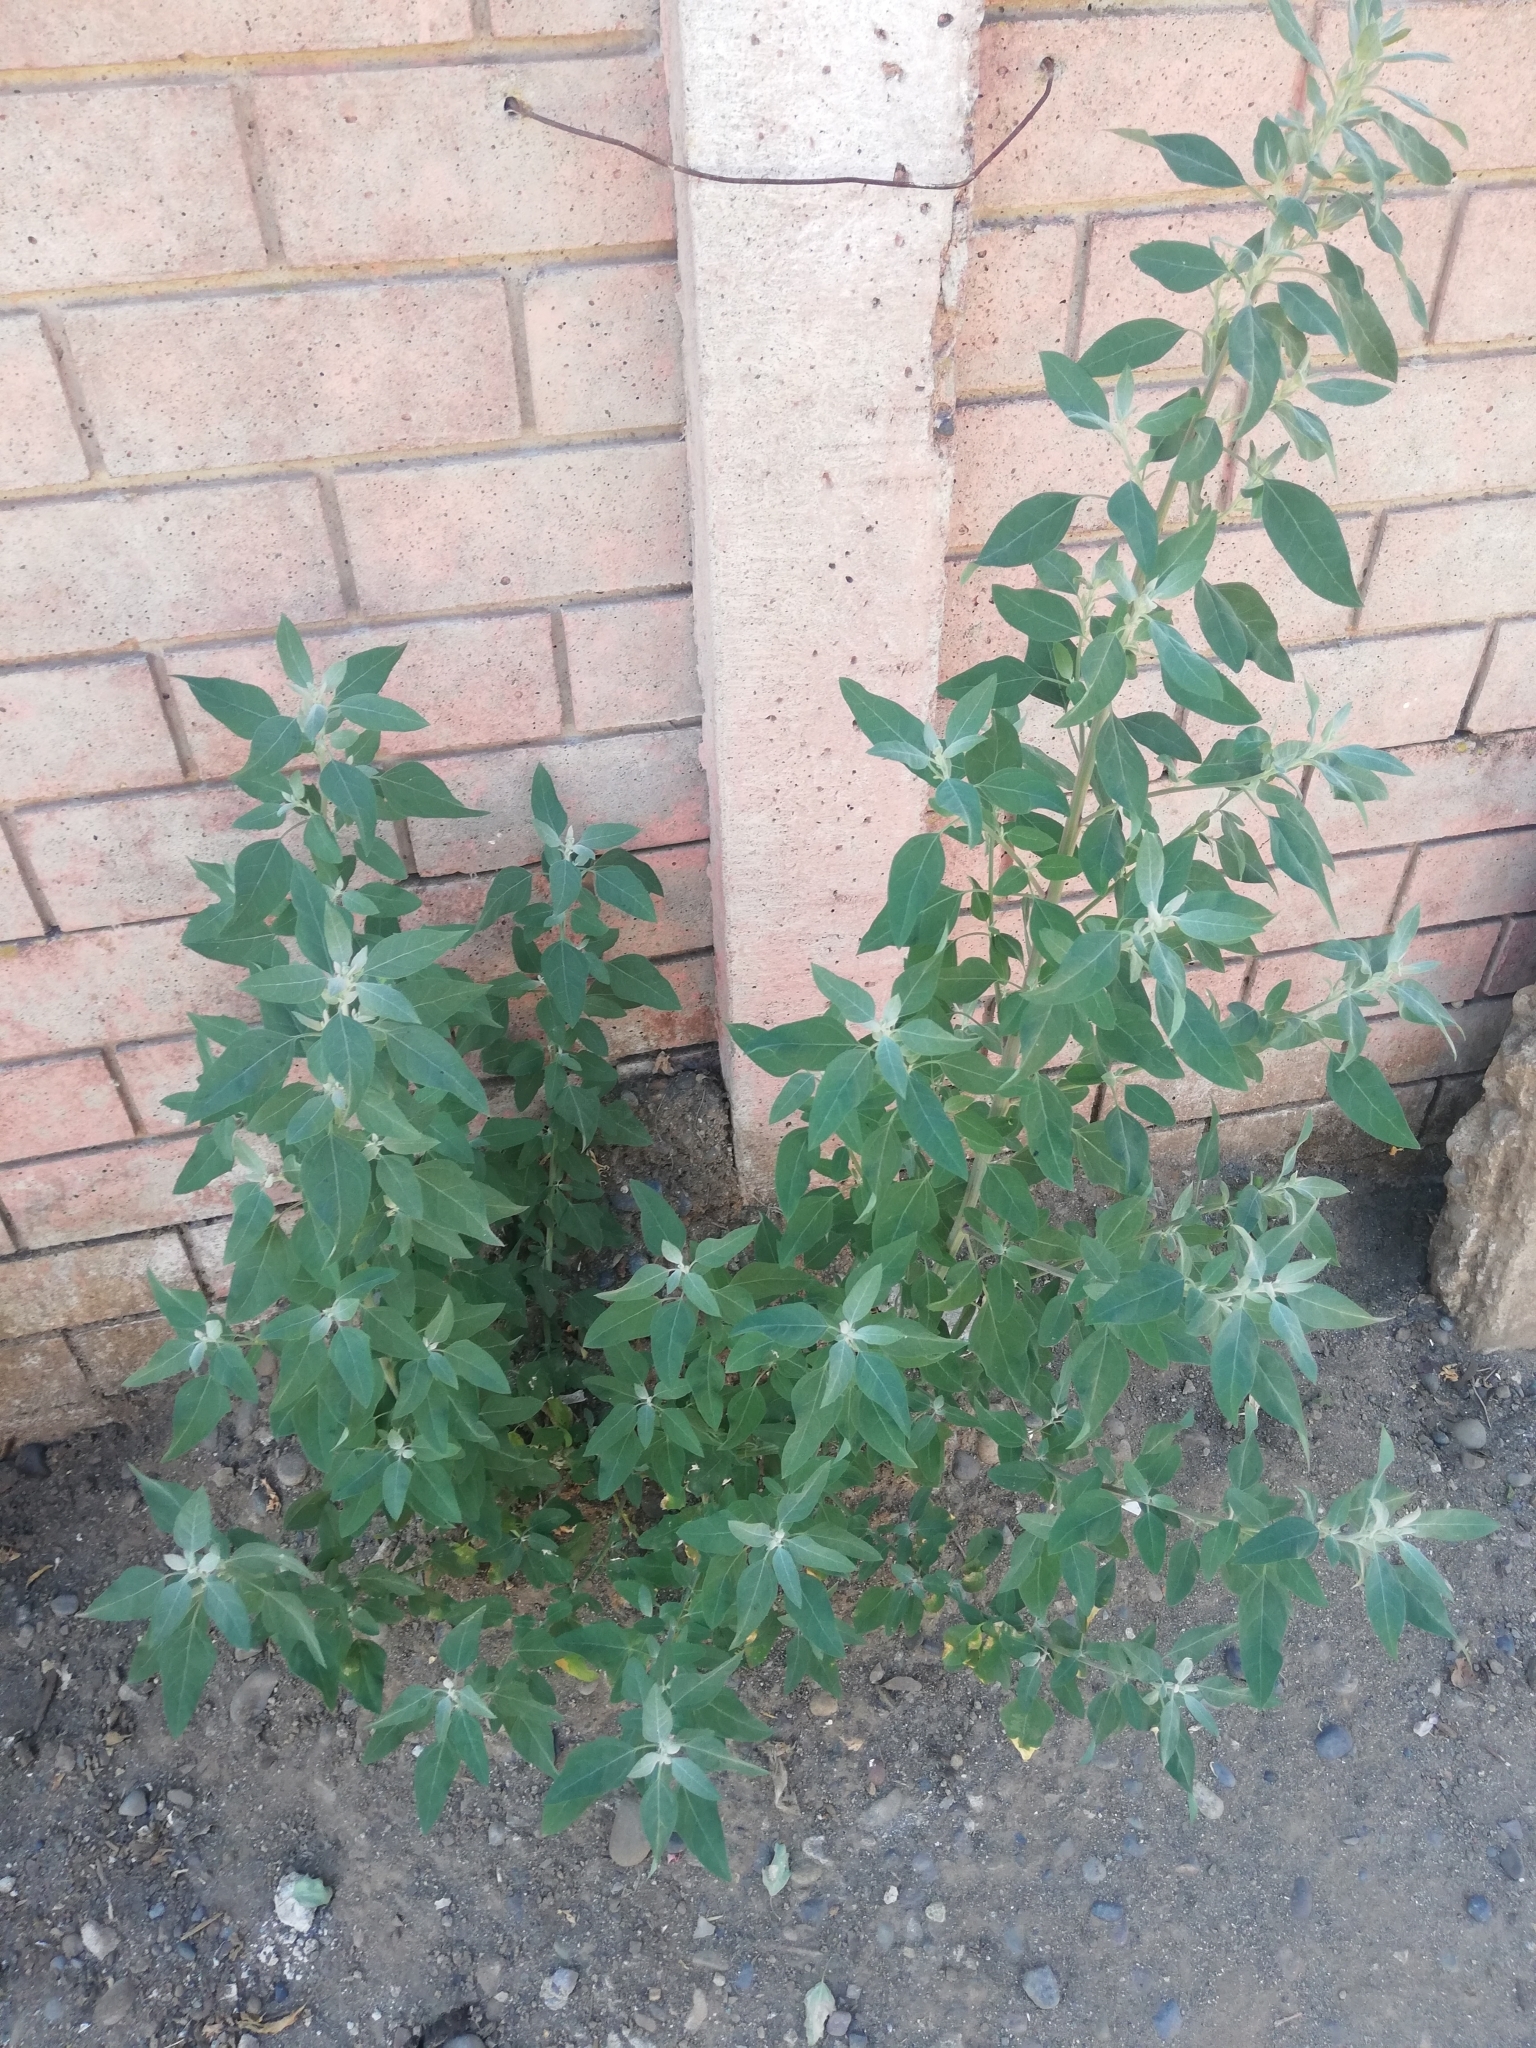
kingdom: Plantae
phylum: Tracheophyta
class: Magnoliopsida
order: Caryophyllales
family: Amaranthaceae
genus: Chenopodium
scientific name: Chenopodium album
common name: Fat-hen
